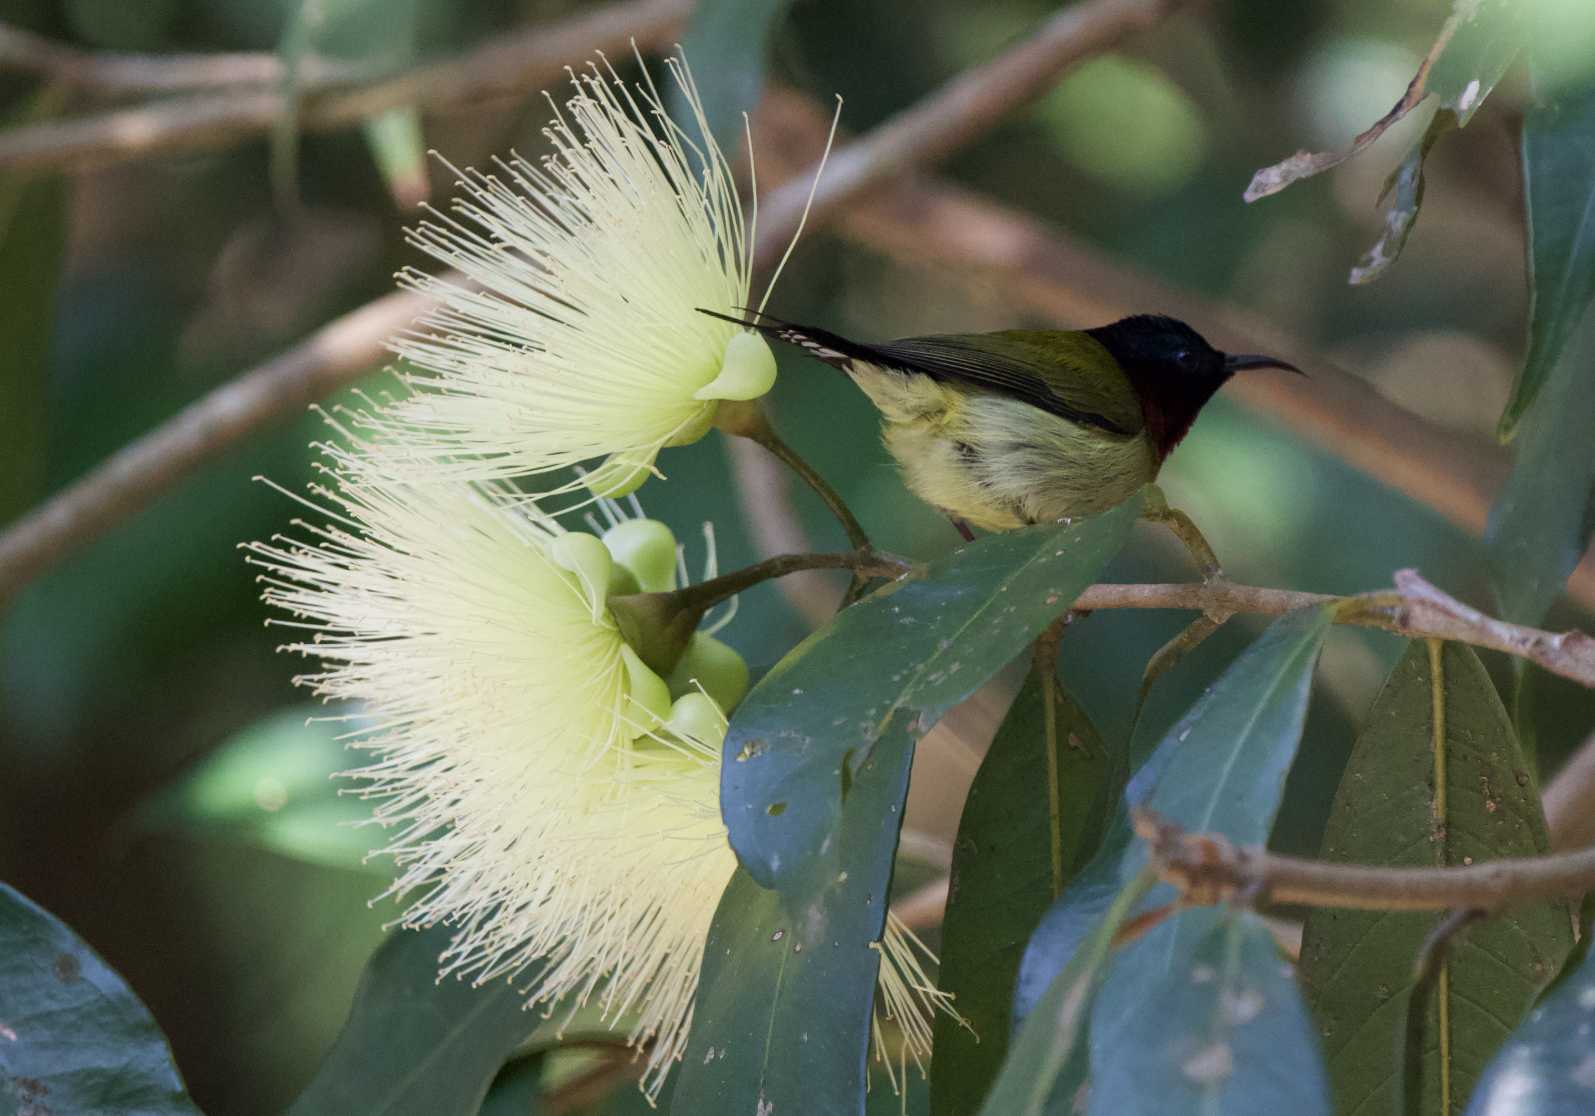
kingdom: Plantae
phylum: Tracheophyta
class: Magnoliopsida
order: Myrtales
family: Myrtaceae
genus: Syzygium
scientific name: Syzygium jambos
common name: Malabar plum
